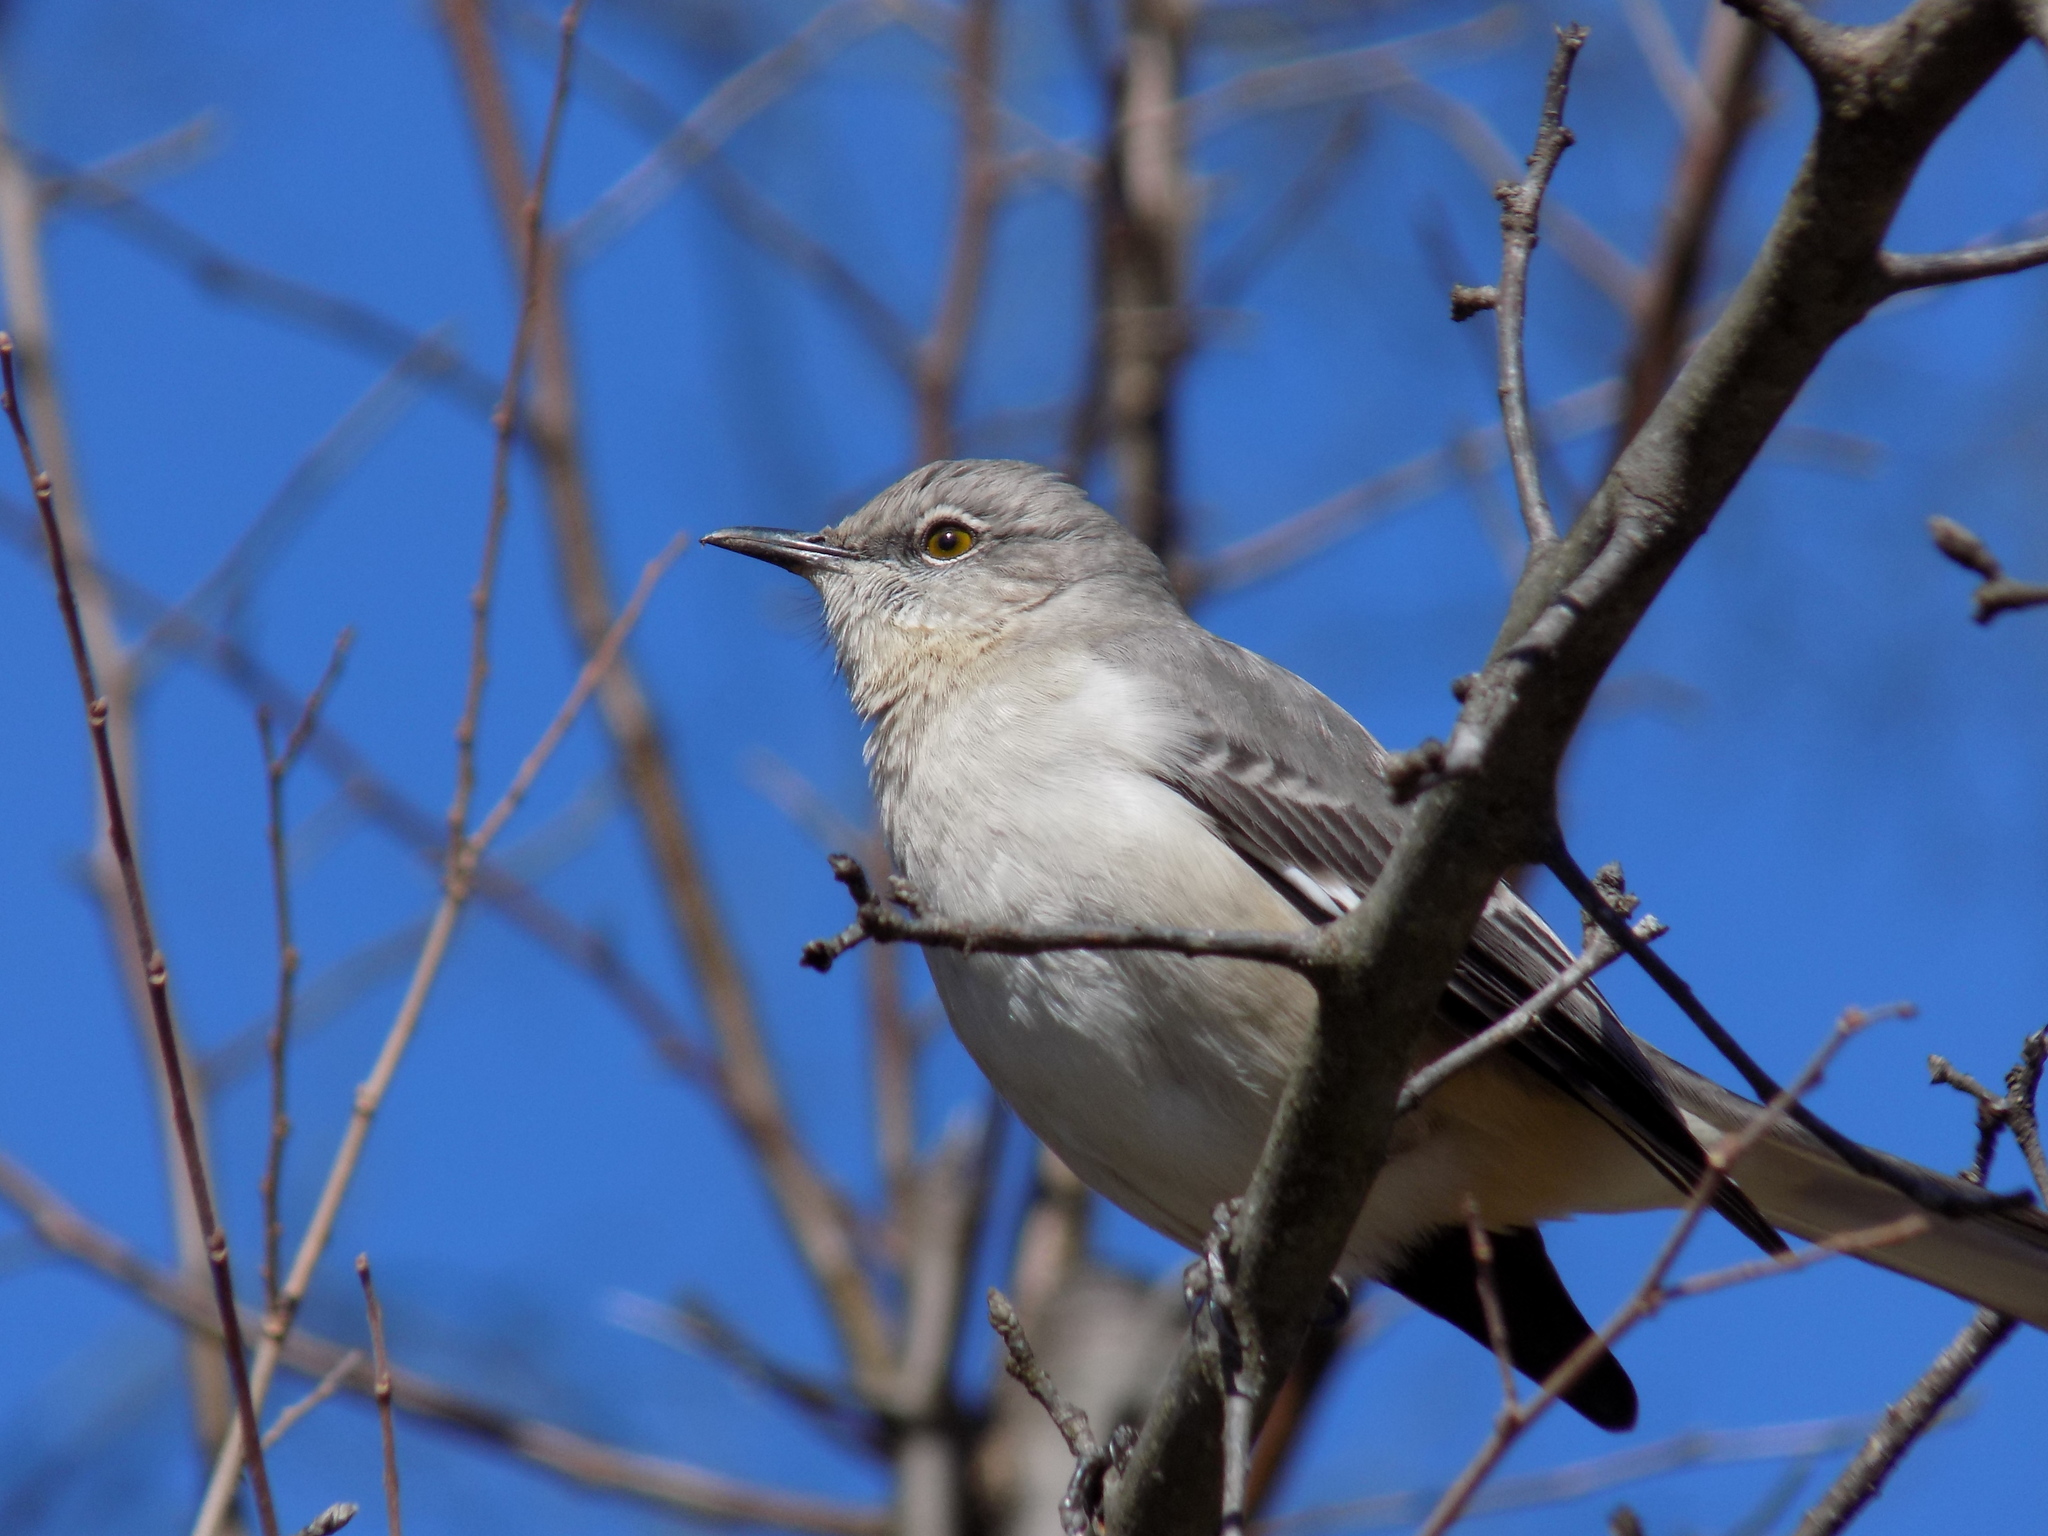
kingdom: Animalia
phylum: Chordata
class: Aves
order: Passeriformes
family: Mimidae
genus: Mimus
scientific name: Mimus polyglottos
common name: Northern mockingbird
